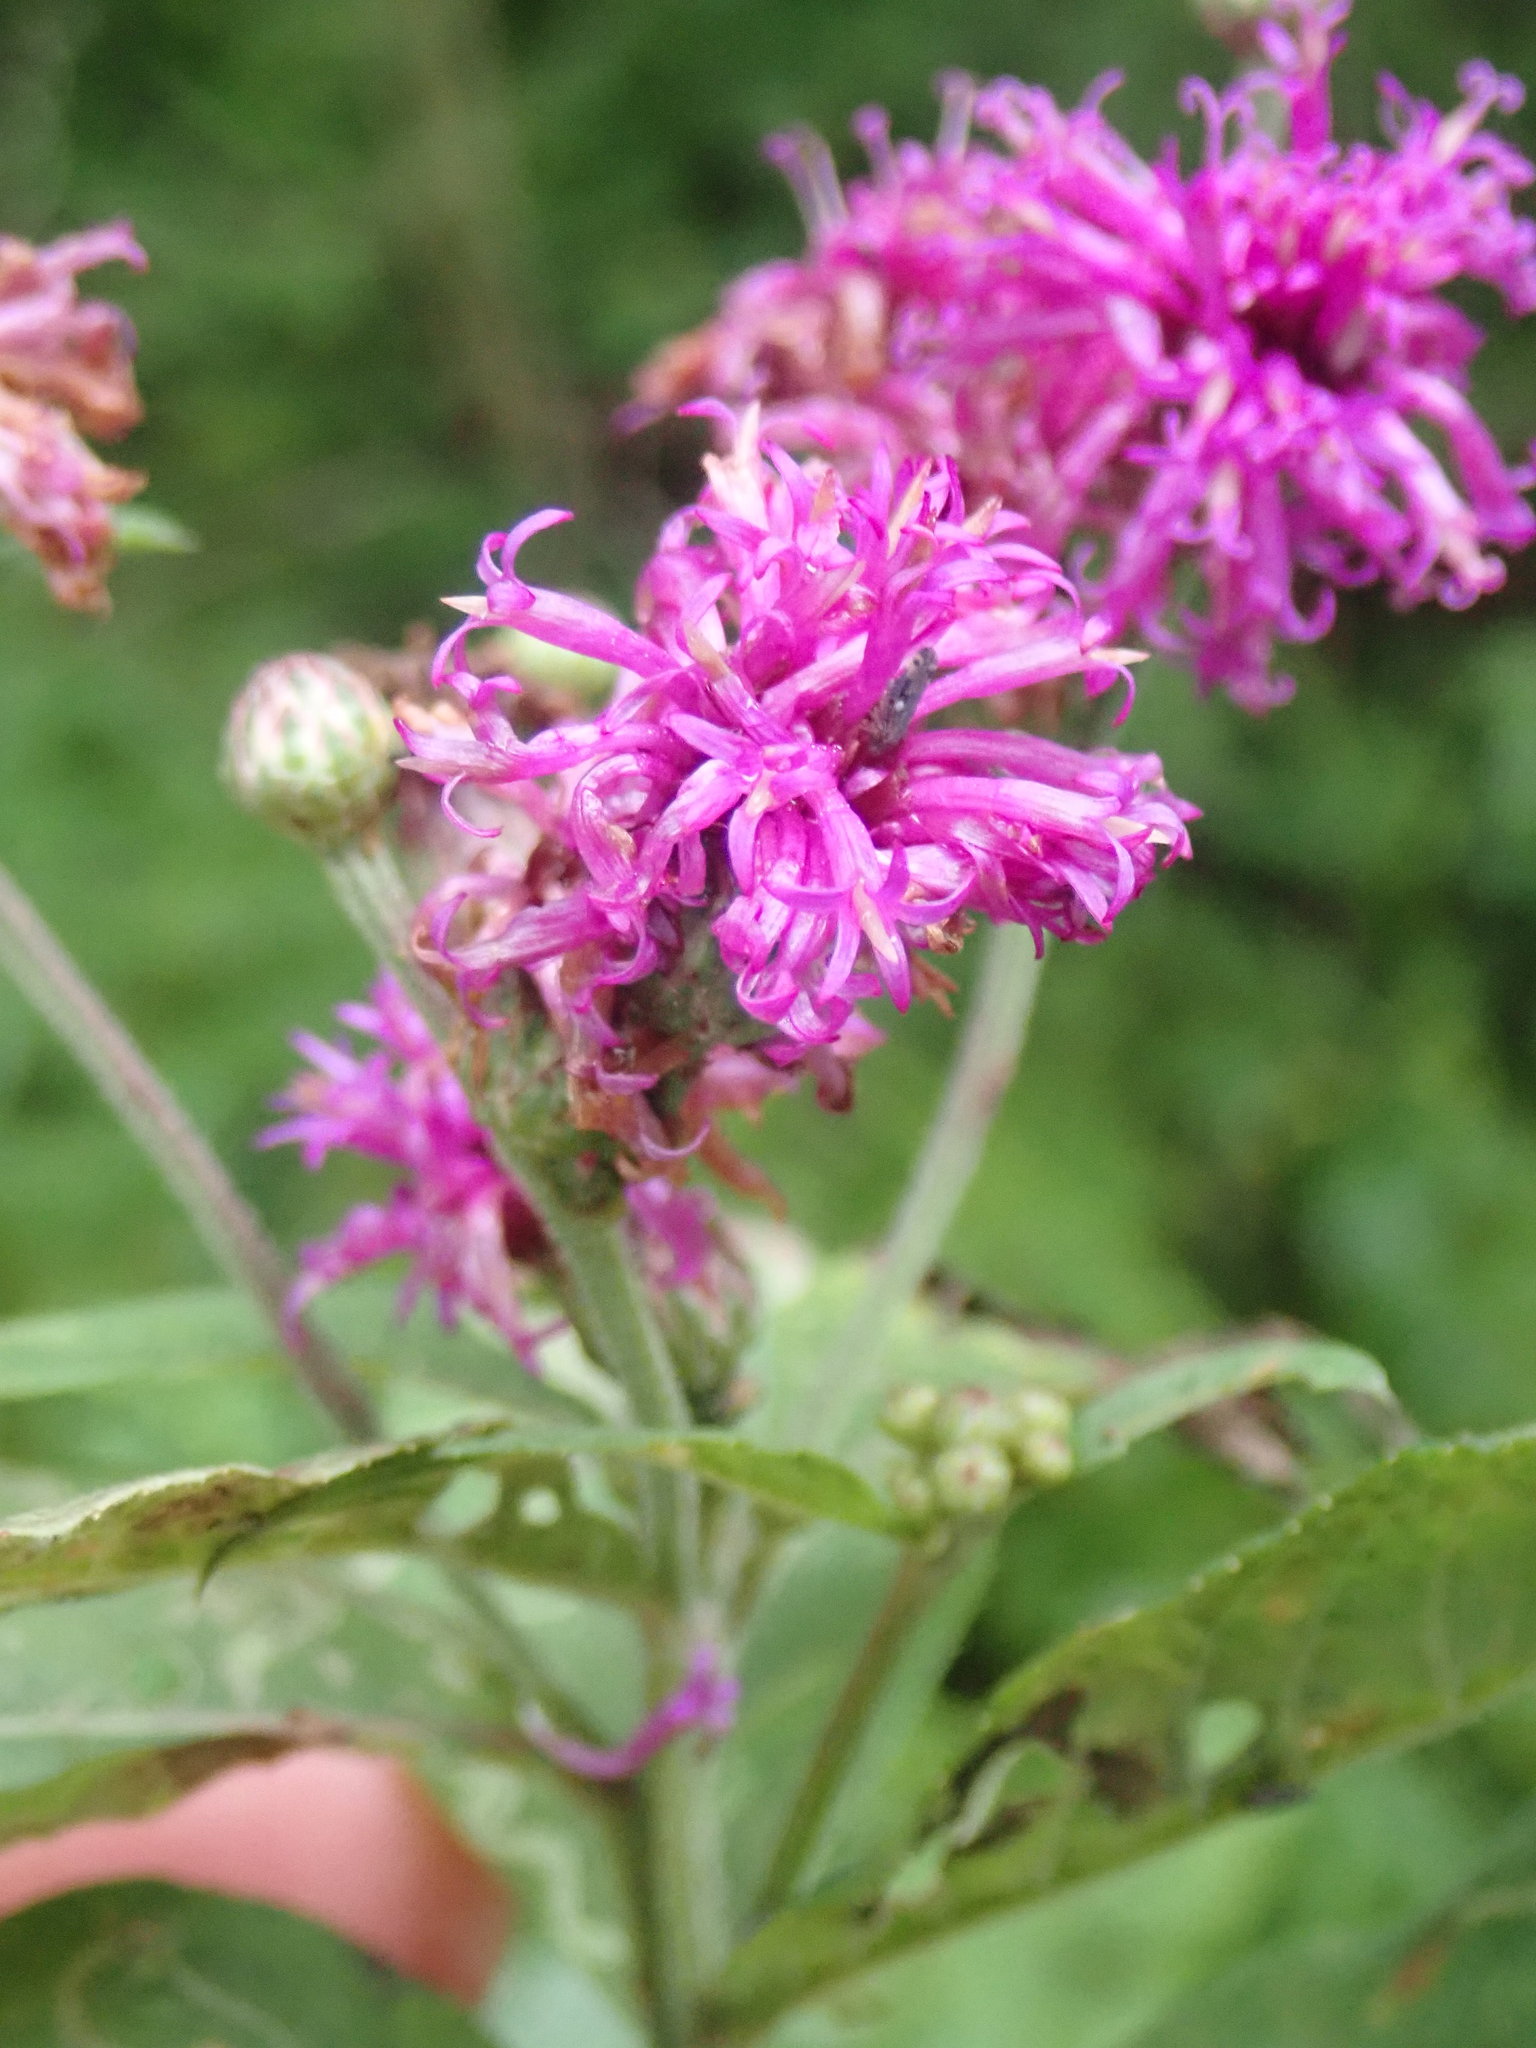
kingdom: Plantae
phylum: Tracheophyta
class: Magnoliopsida
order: Asterales
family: Asteraceae
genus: Vernonia
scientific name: Vernonia missurica
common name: Missouri ironweed
